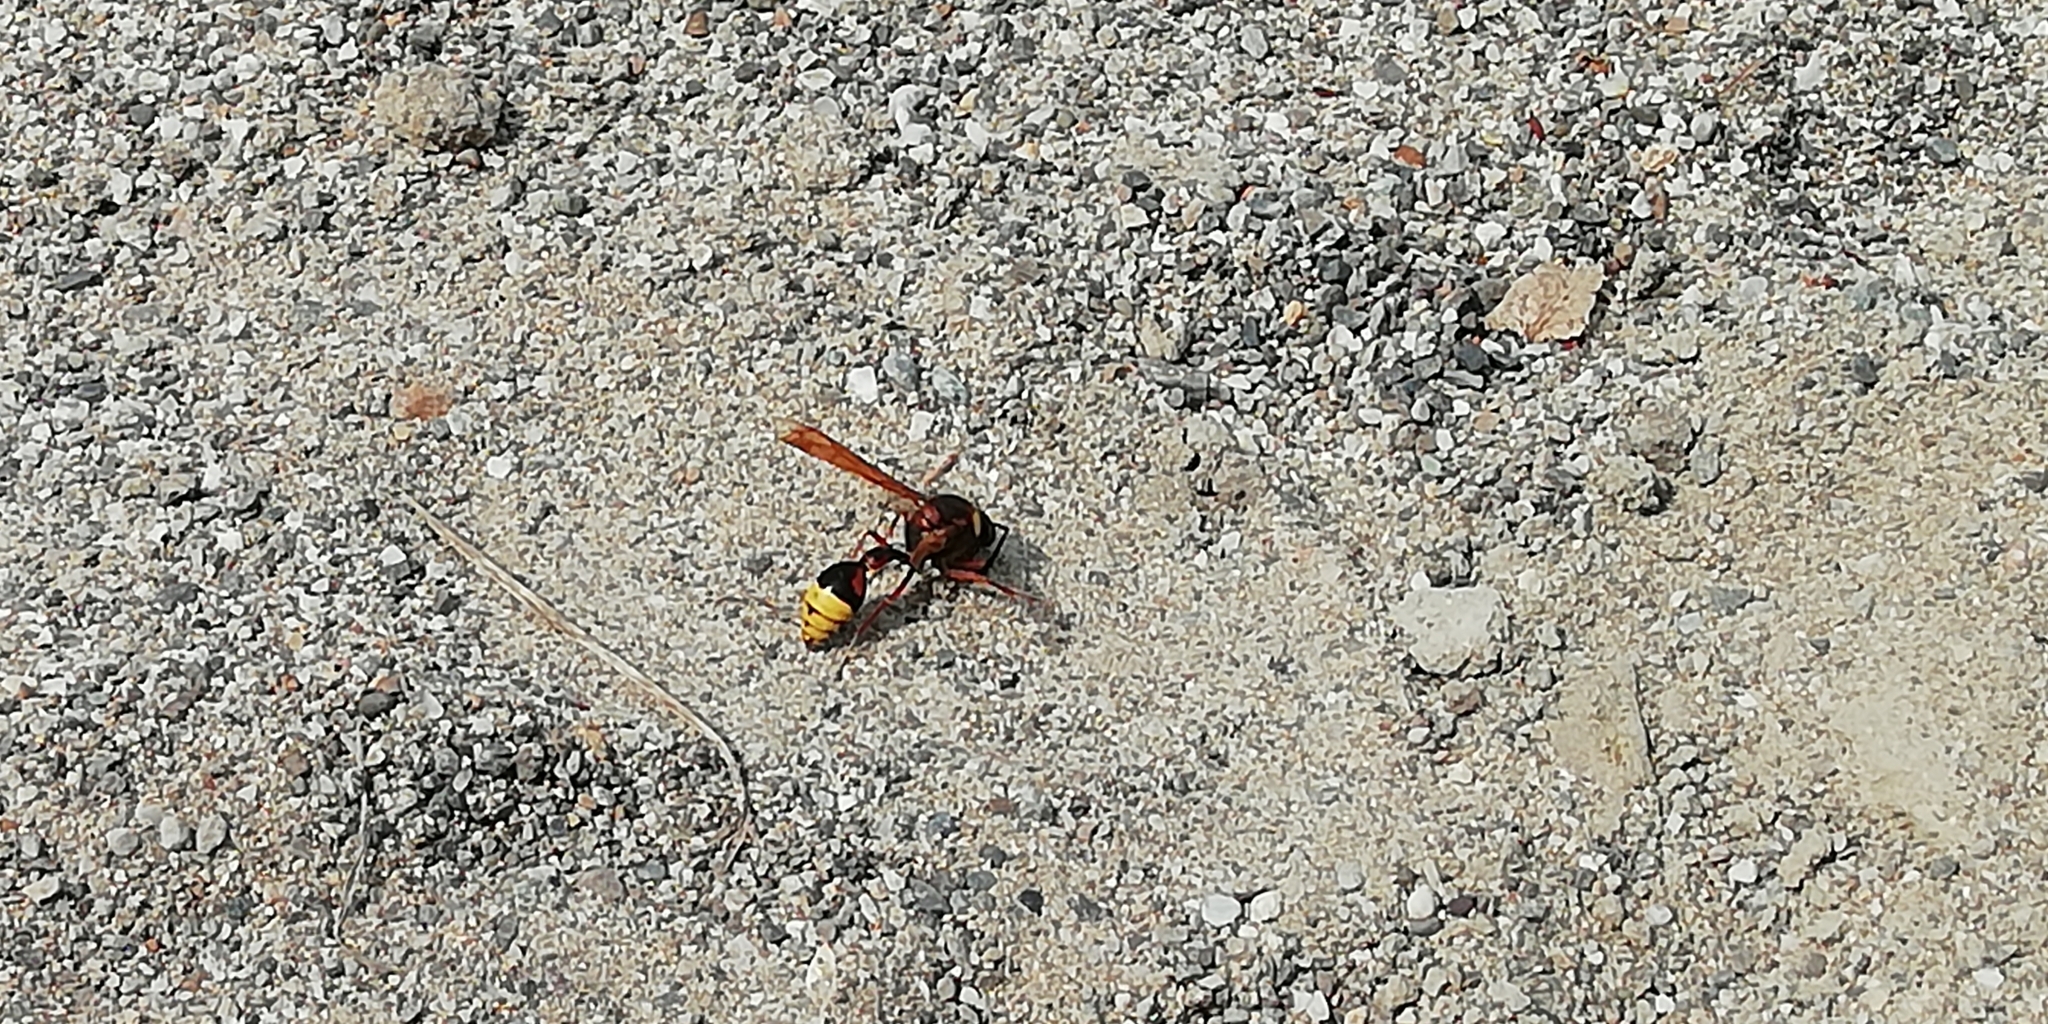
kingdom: Animalia
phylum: Arthropoda
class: Insecta
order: Hymenoptera
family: Eumenidae
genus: Delta
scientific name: Delta unguiculatum
